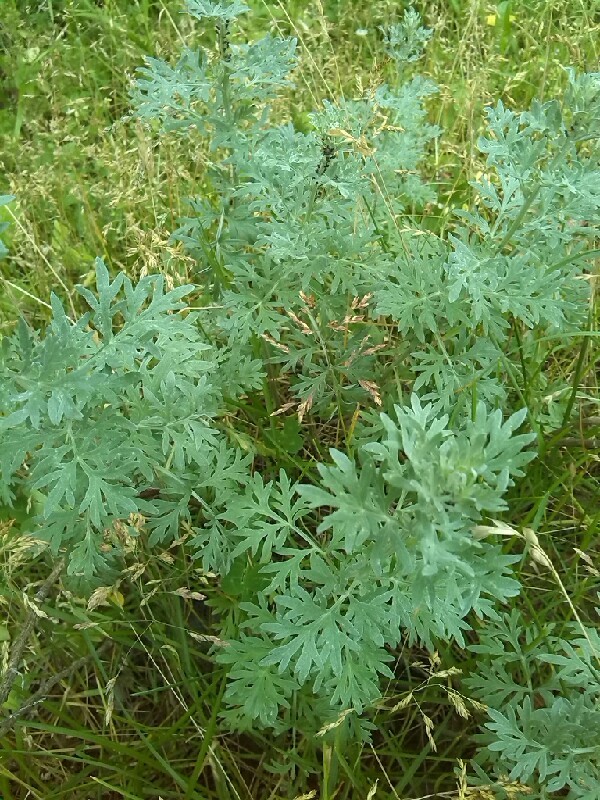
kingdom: Plantae
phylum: Tracheophyta
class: Magnoliopsida
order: Asterales
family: Asteraceae
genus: Artemisia
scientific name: Artemisia absinthium
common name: Wormwood
